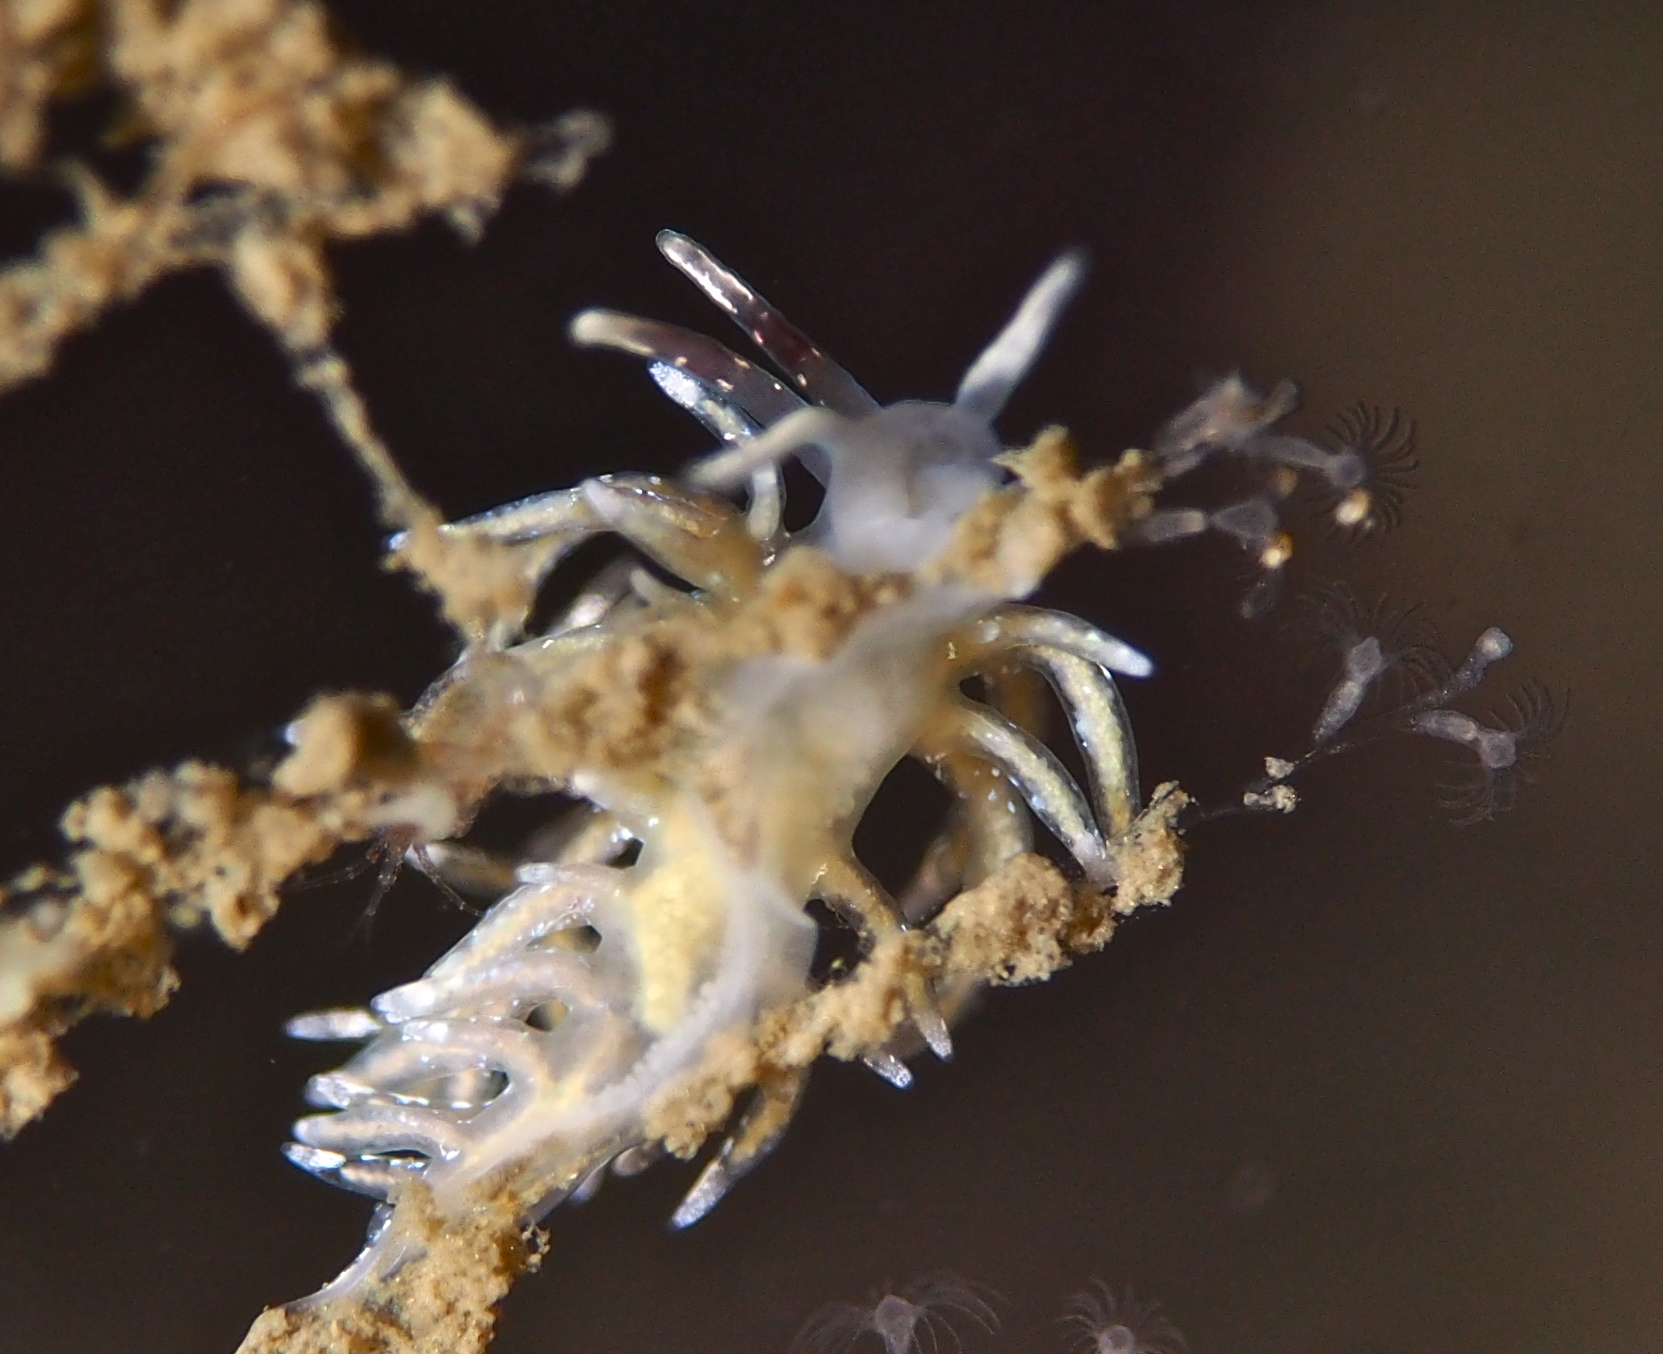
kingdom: Animalia
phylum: Mollusca
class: Gastropoda
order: Nudibranchia
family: Trinchesiidae
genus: Rubramoena
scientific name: Rubramoena rubescens
